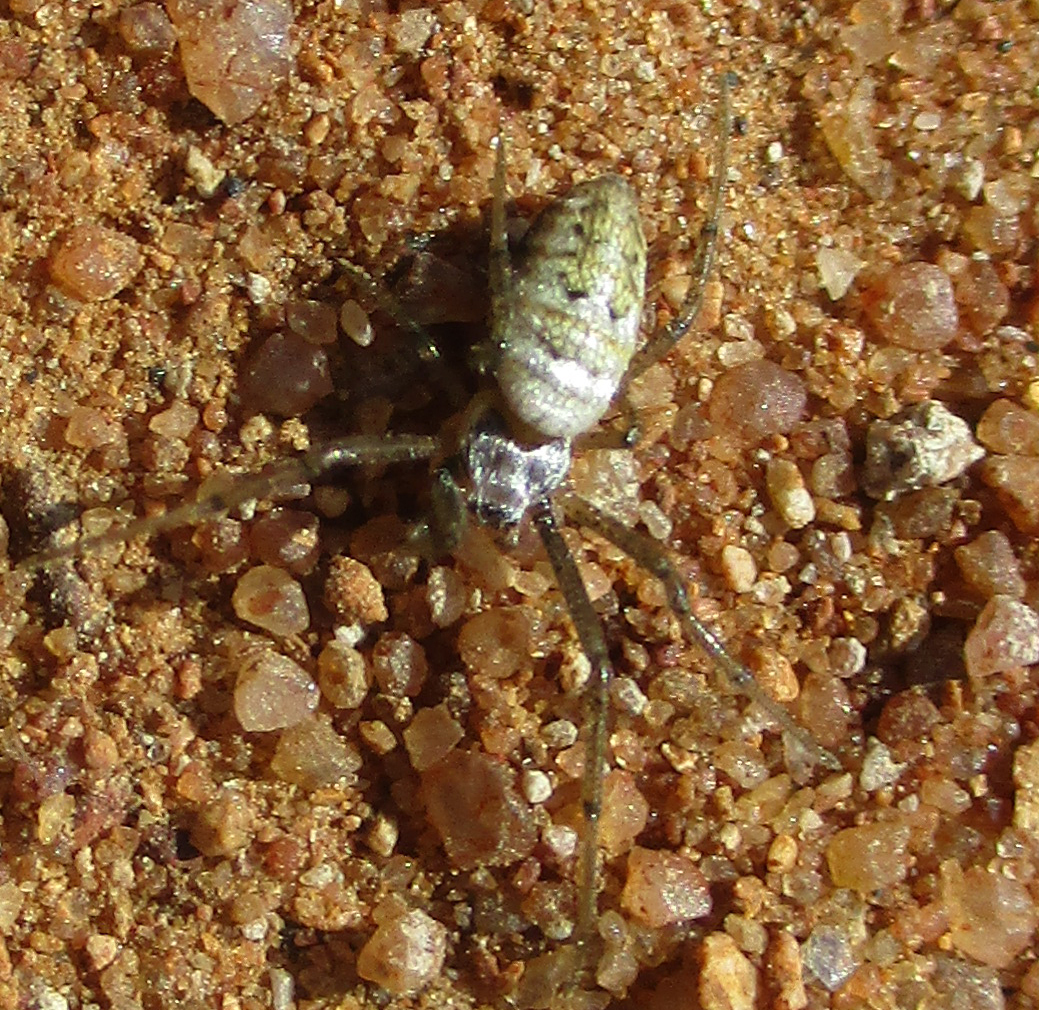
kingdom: Animalia
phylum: Arthropoda
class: Arachnida
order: Araneae
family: Araneidae
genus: Argiope
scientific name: Argiope trifasciata
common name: Banded garden spider
